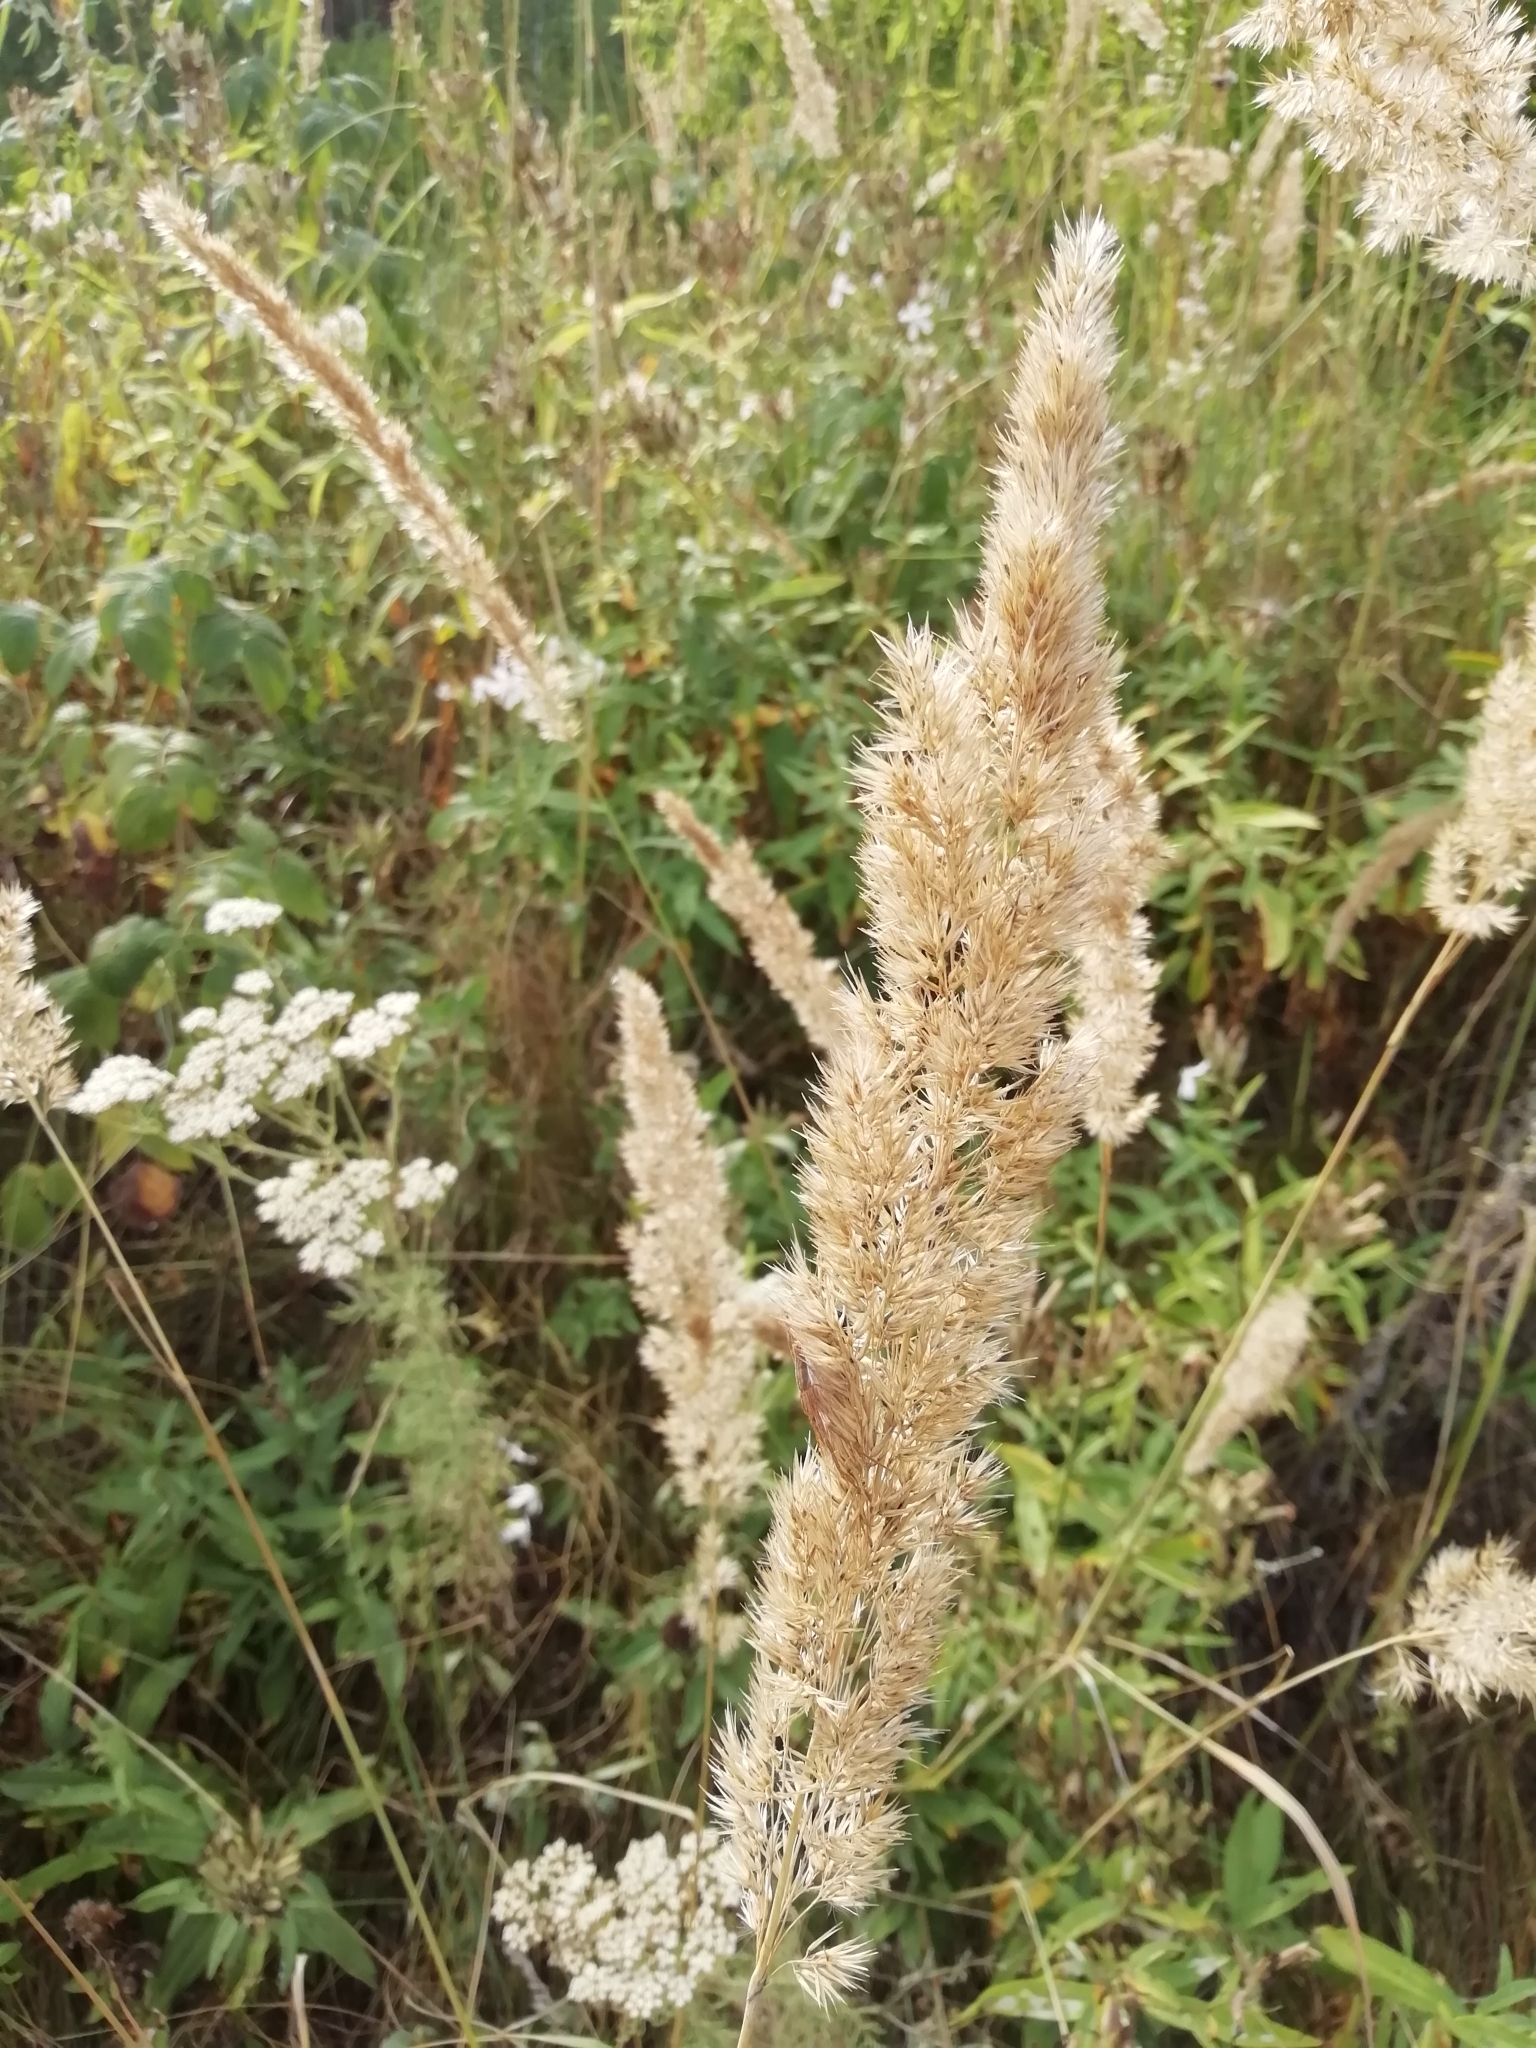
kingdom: Plantae
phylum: Tracheophyta
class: Liliopsida
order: Poales
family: Poaceae
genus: Calamagrostis
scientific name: Calamagrostis epigejos
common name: Wood small-reed
